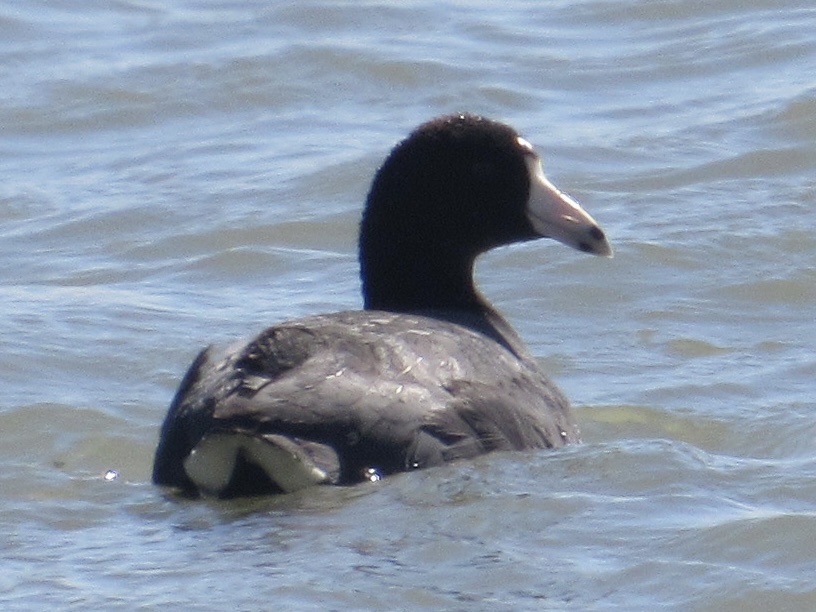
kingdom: Animalia
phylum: Chordata
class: Aves
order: Gruiformes
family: Rallidae
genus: Fulica
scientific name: Fulica americana
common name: American coot
